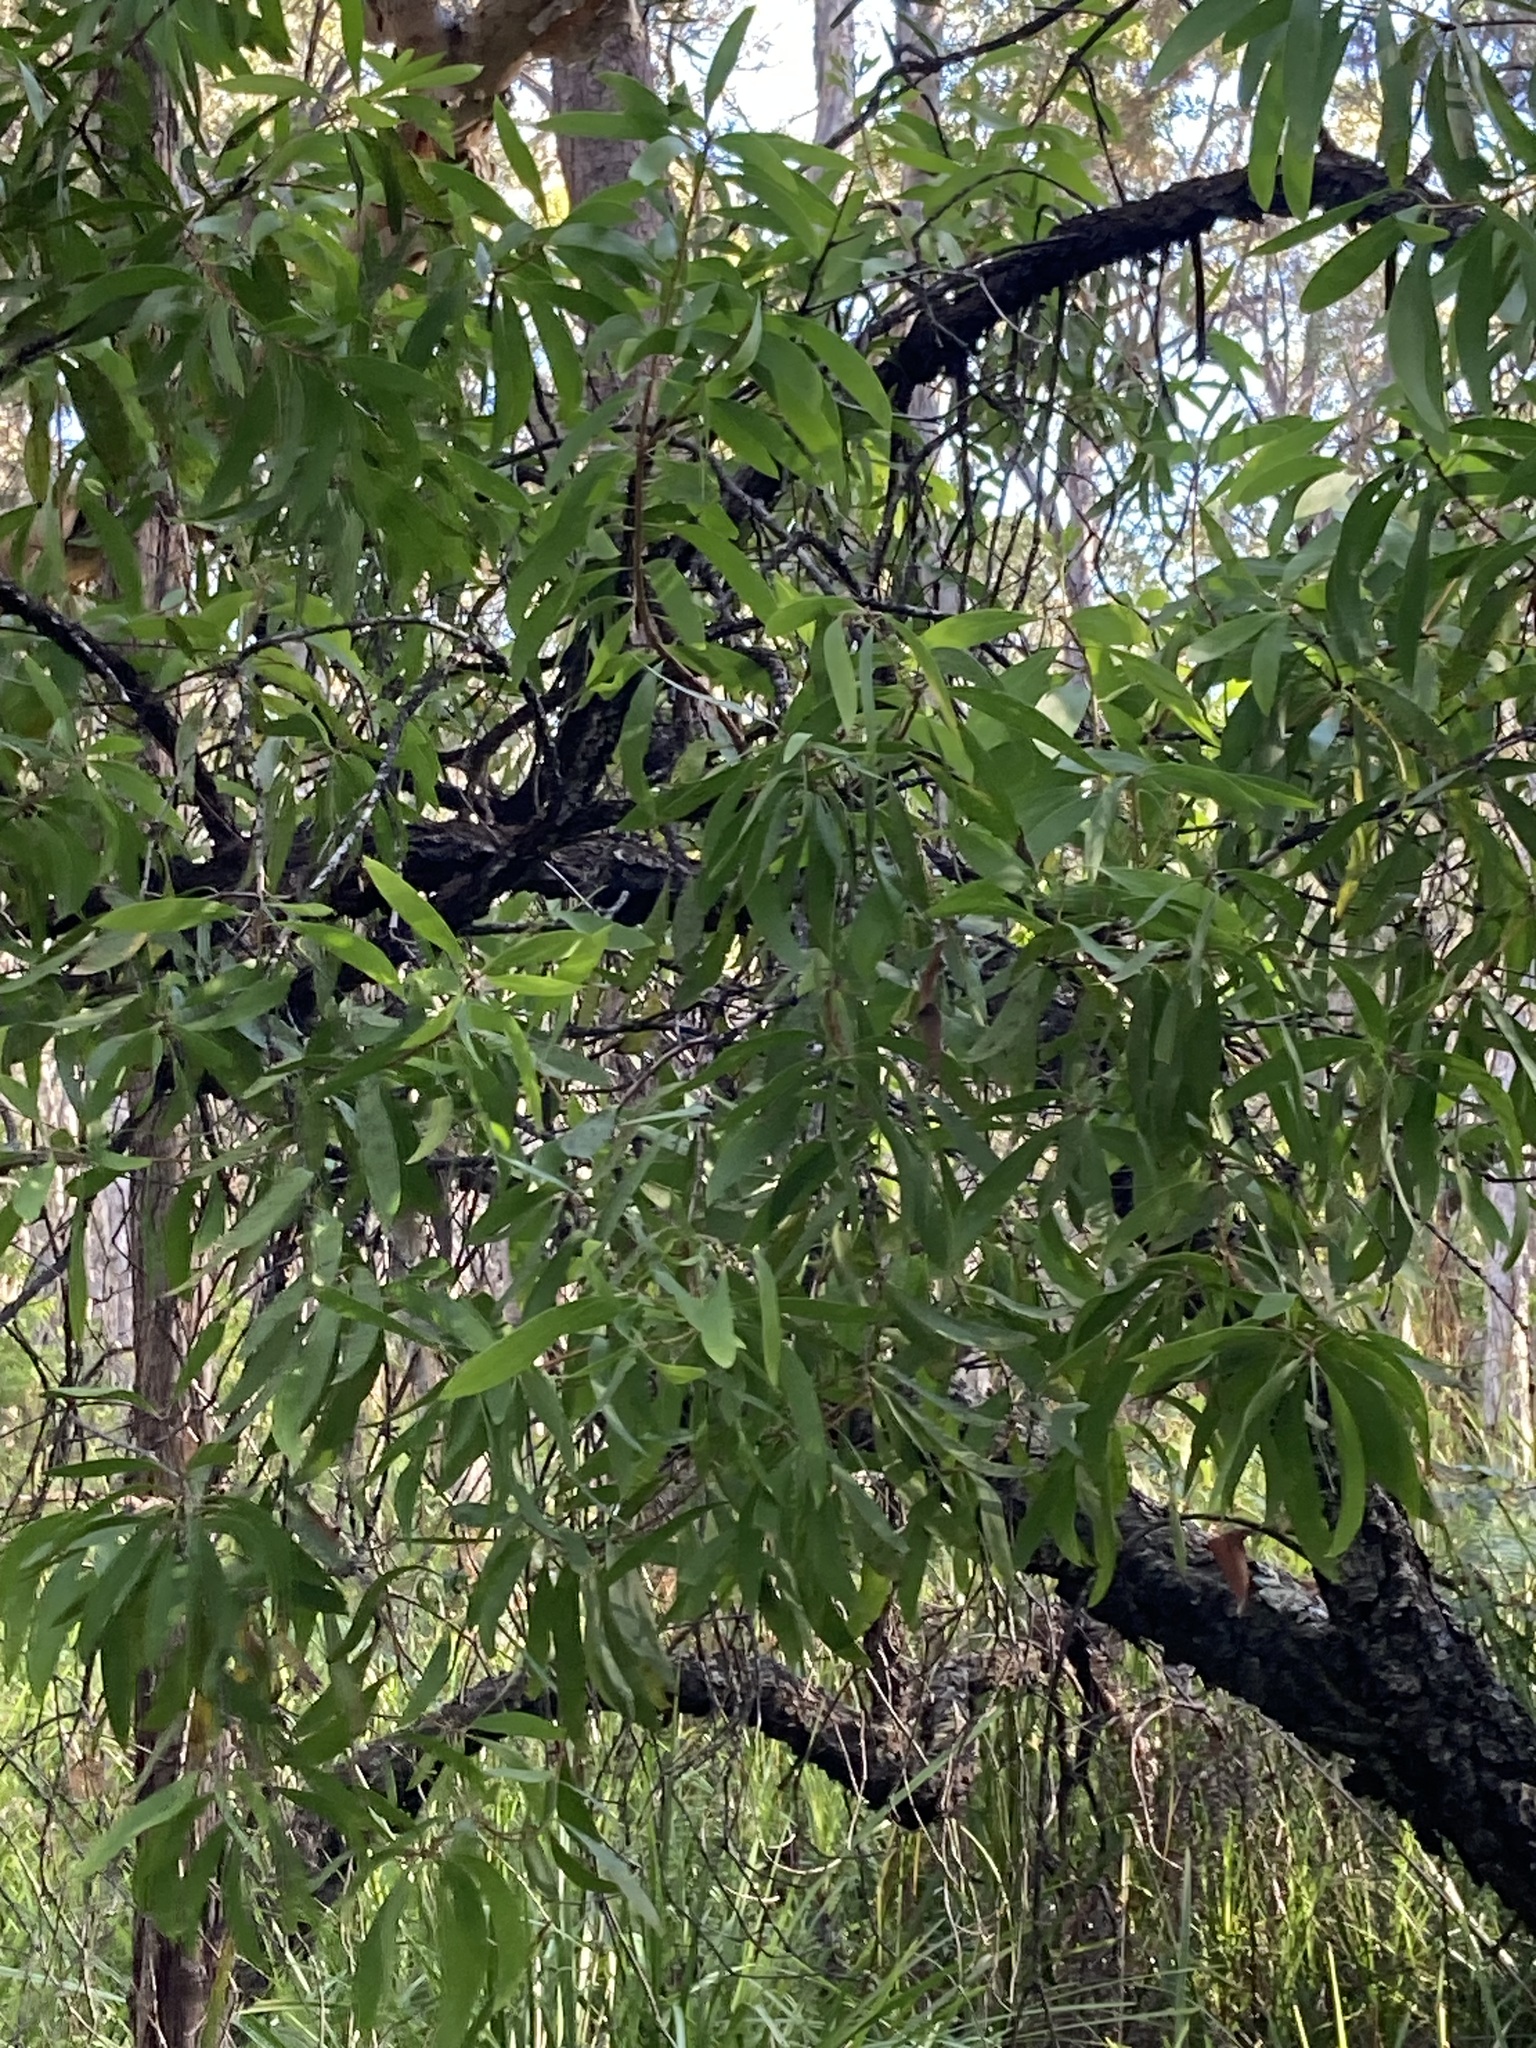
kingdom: Plantae
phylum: Tracheophyta
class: Magnoliopsida
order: Proteales
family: Proteaceae
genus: Persoonia
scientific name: Persoonia levis
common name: Smooth geebung
